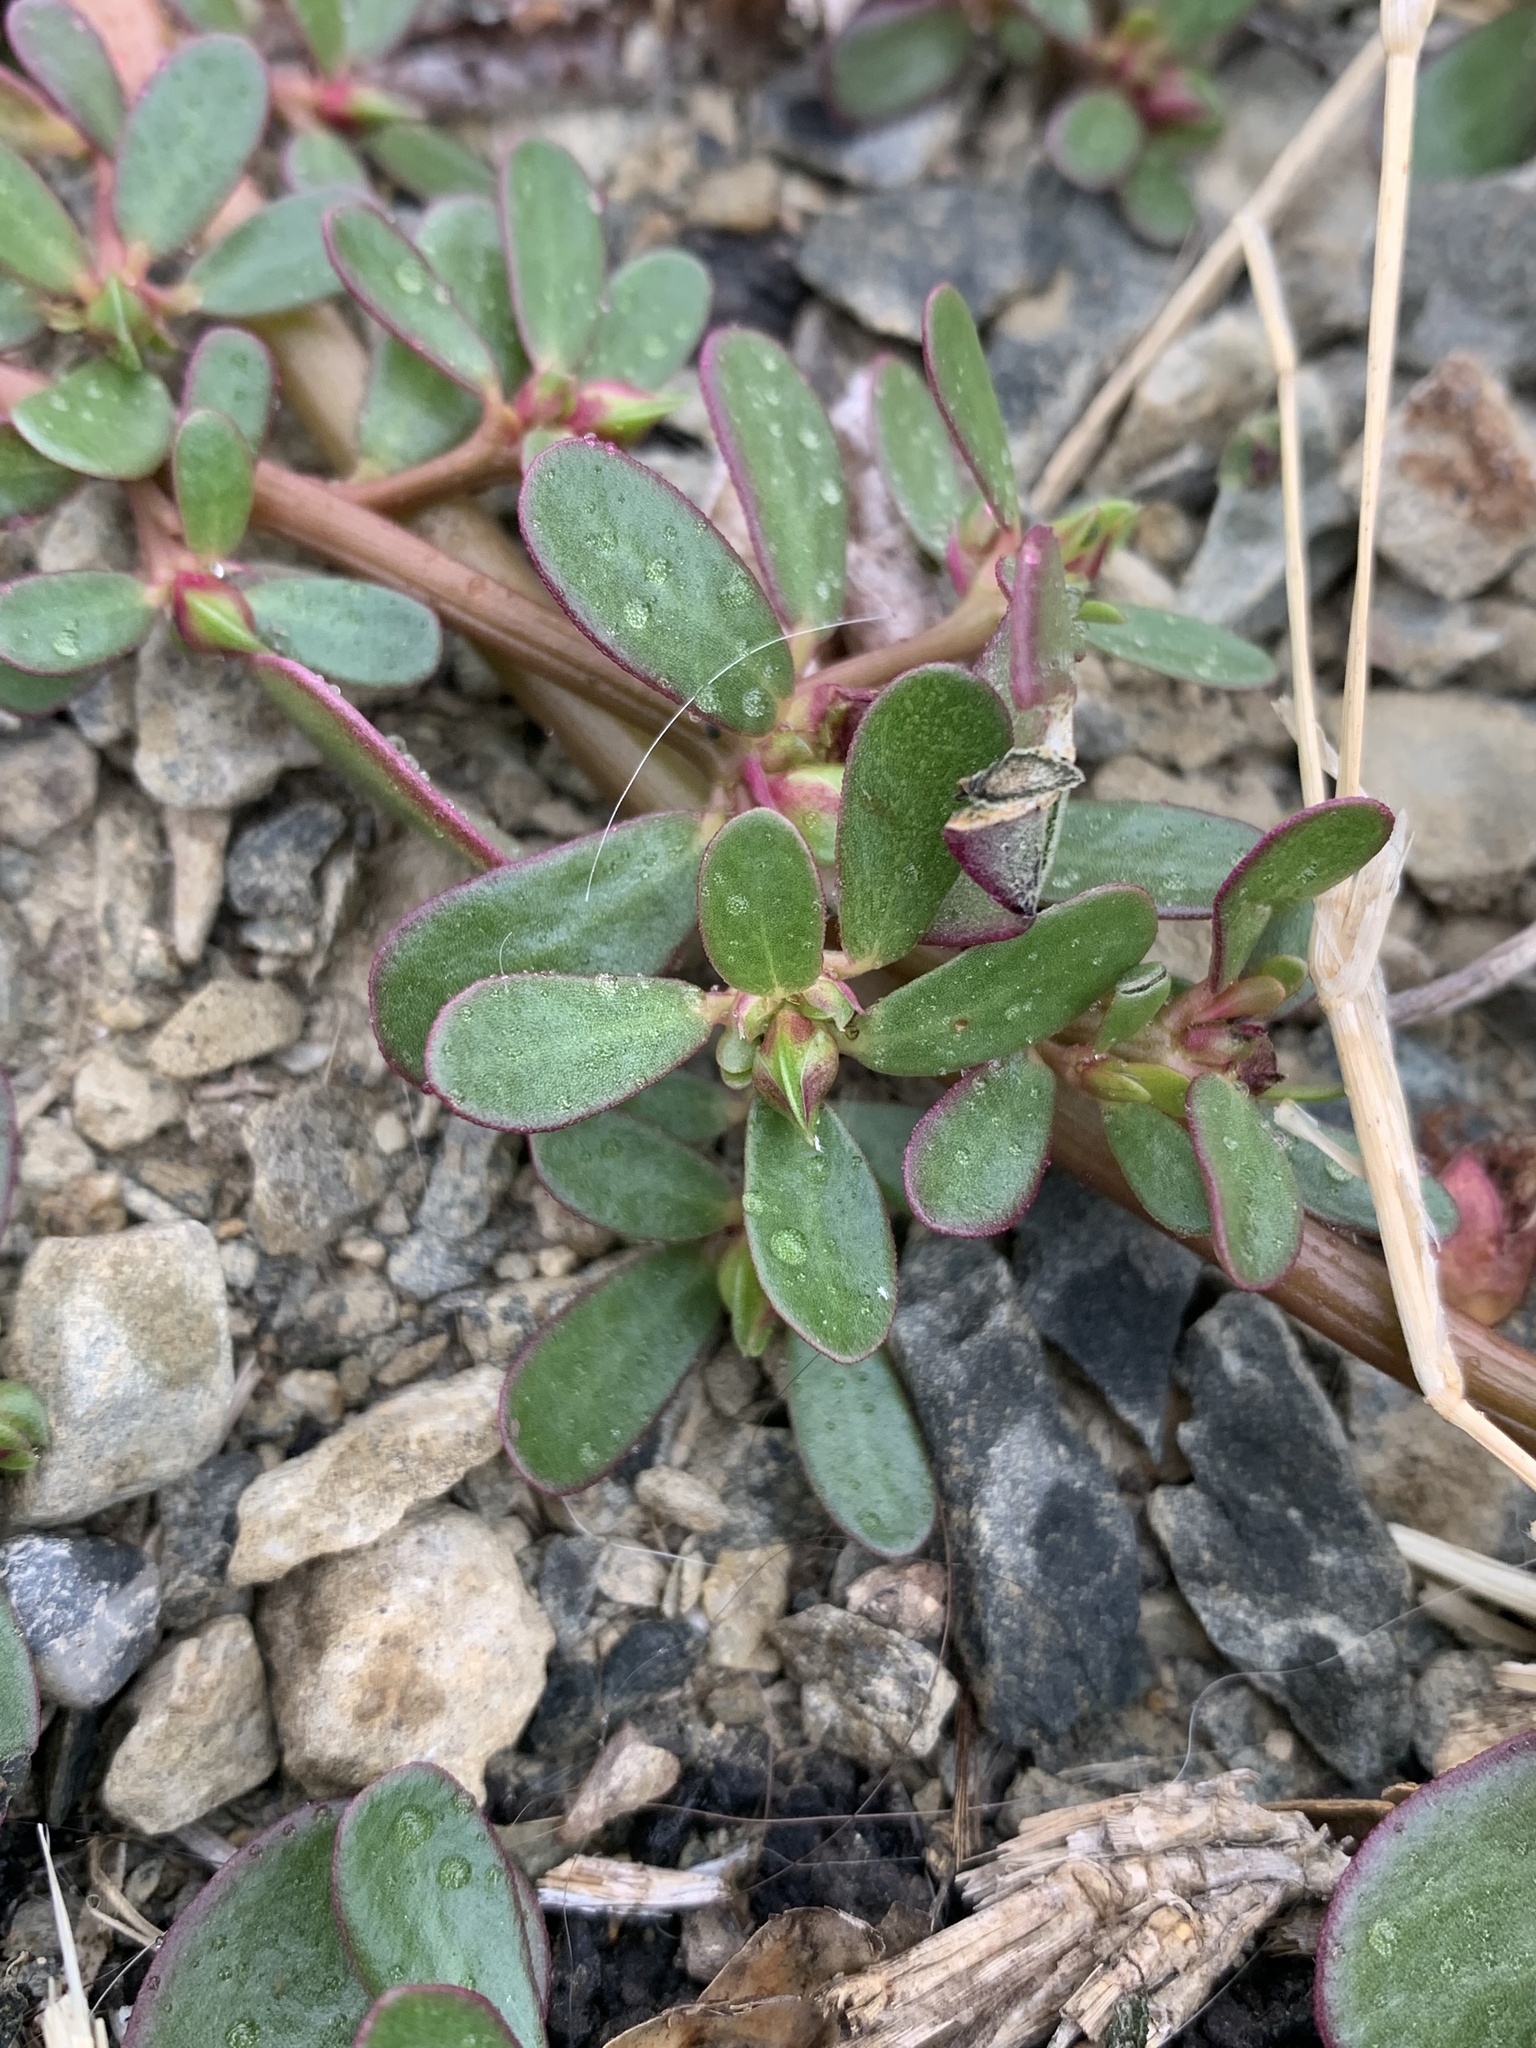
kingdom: Plantae
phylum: Tracheophyta
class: Magnoliopsida
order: Caryophyllales
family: Portulacaceae
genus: Portulaca
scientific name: Portulaca oleracea
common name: Common purslane
